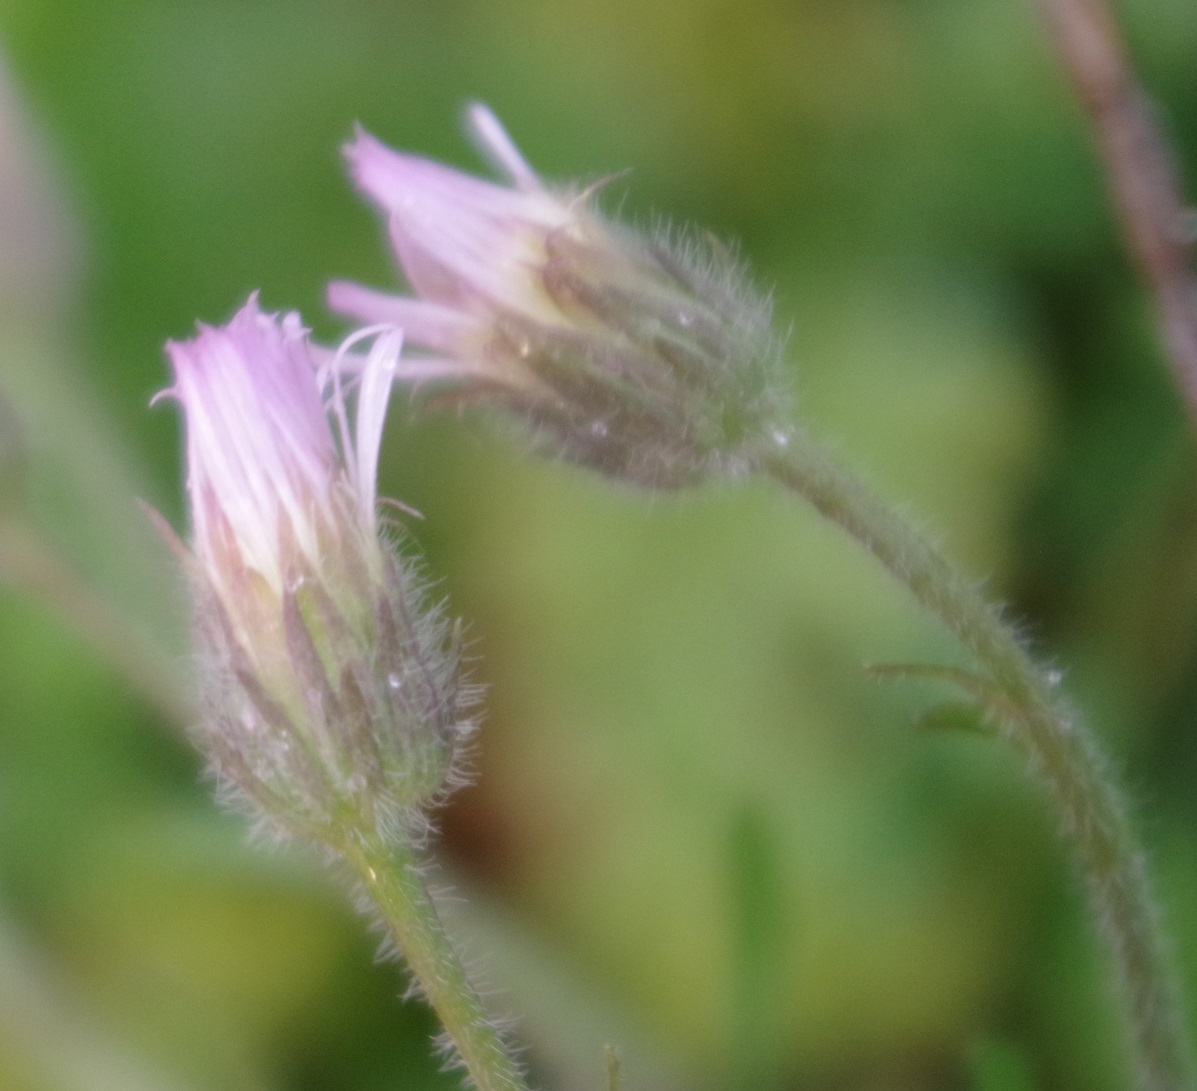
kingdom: Plantae
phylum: Tracheophyta
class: Magnoliopsida
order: Asterales
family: Asteraceae
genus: Erigeron
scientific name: Erigeron acris
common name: Blue fleabane
